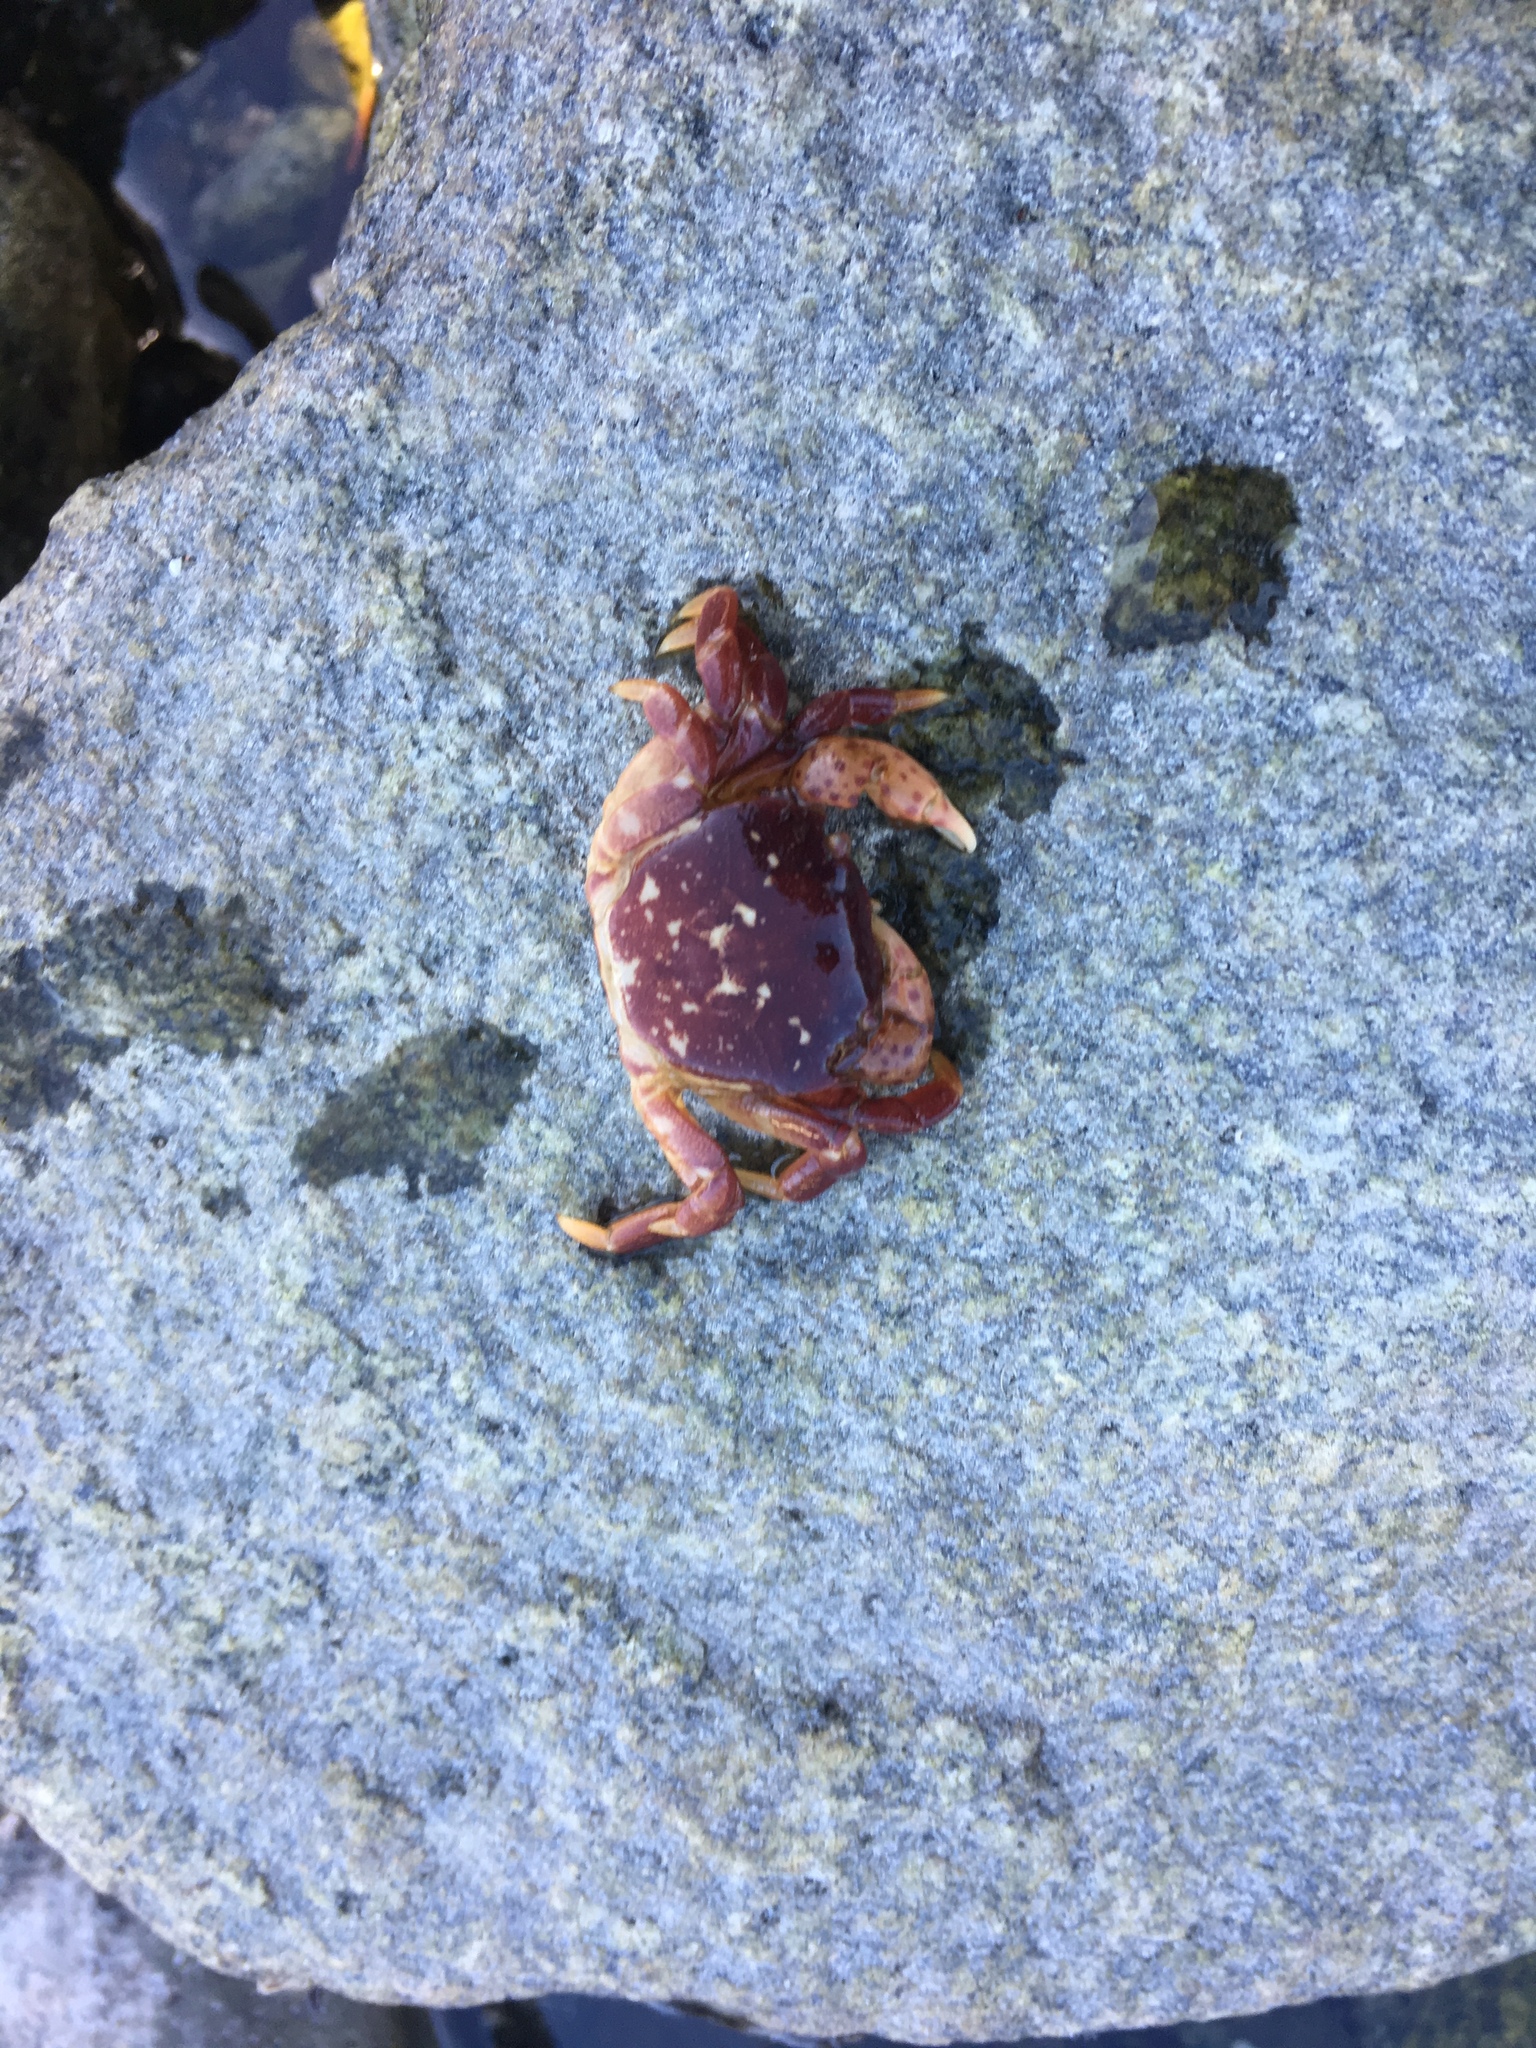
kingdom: Animalia
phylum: Arthropoda
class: Malacostraca
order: Decapoda
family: Varunidae
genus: Hemigrapsus
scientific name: Hemigrapsus nudus
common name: Purple shore crab
